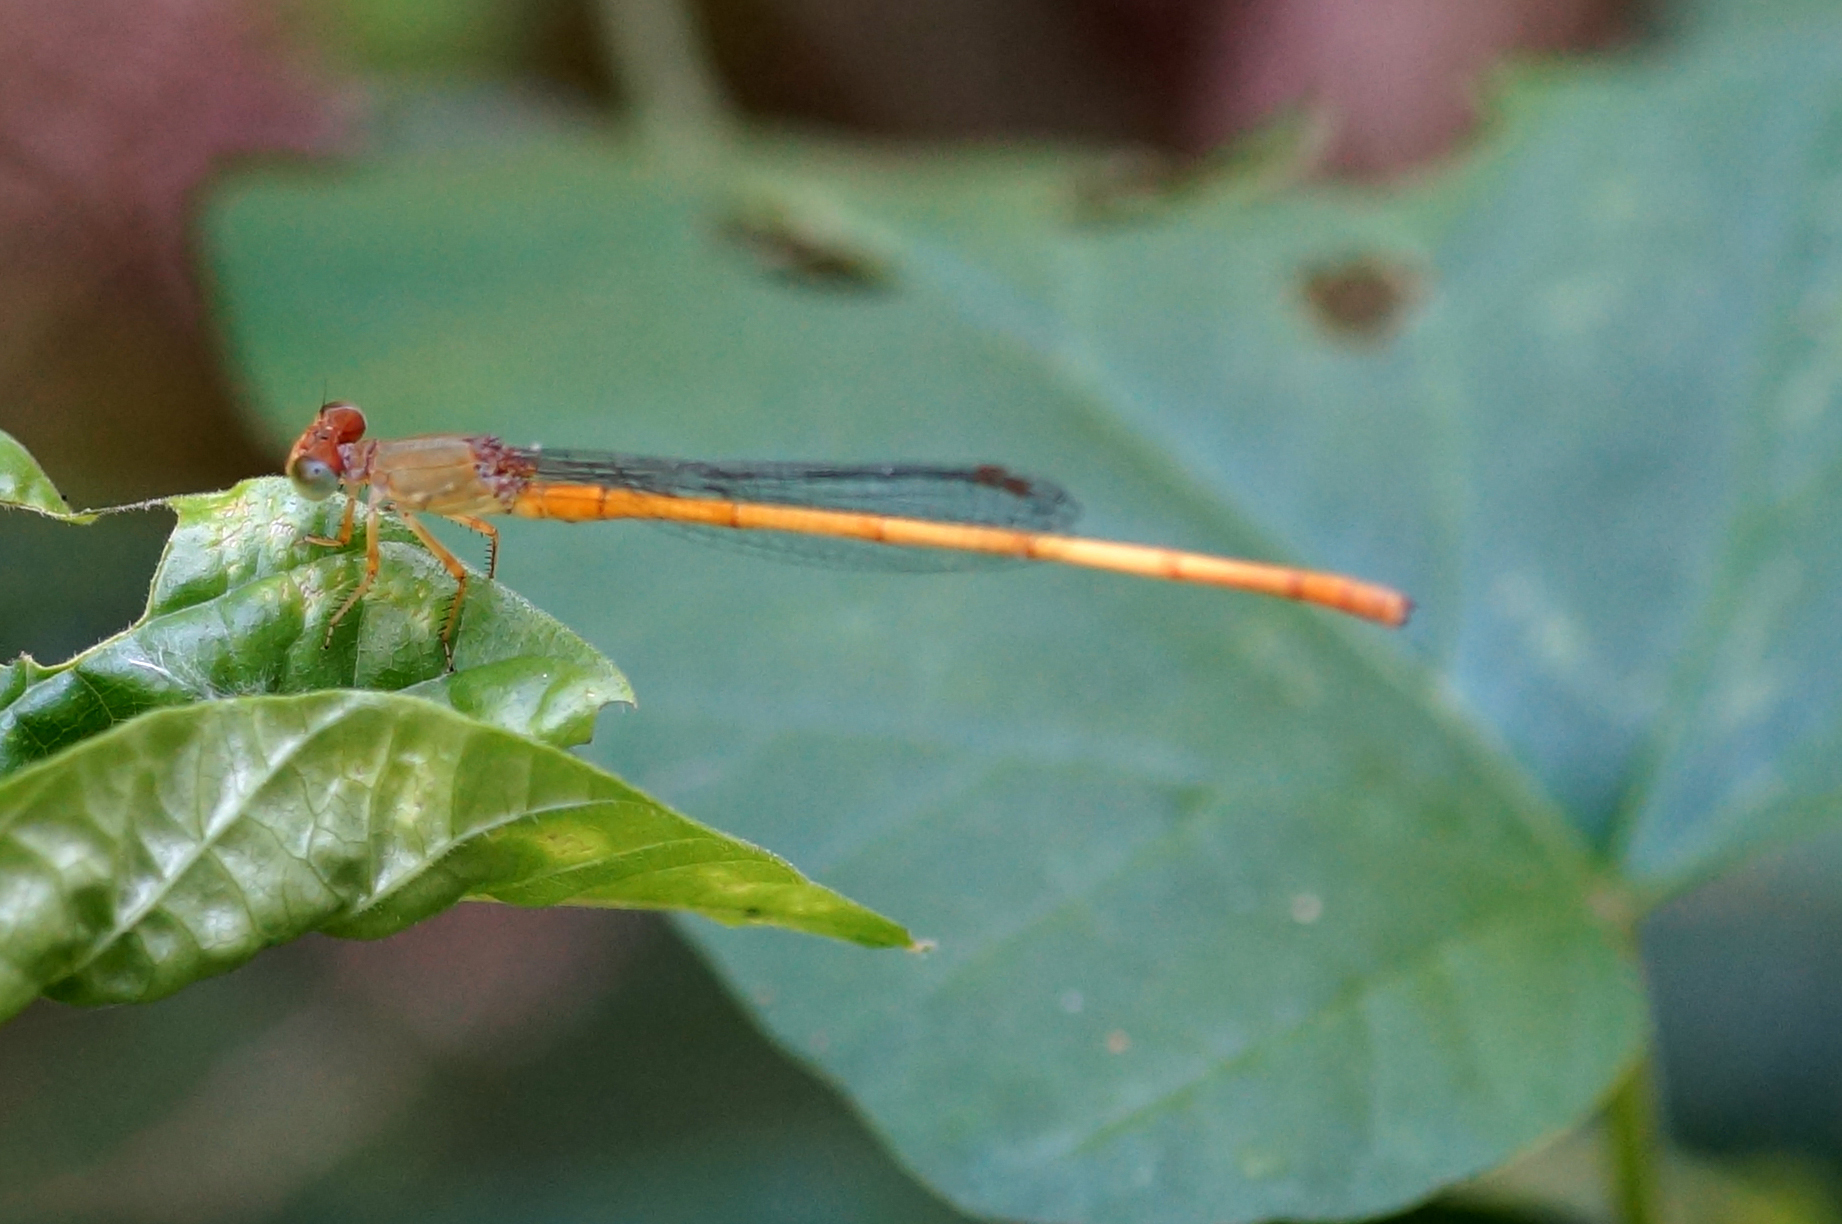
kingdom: Animalia
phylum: Arthropoda
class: Insecta
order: Odonata
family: Coenagrionidae
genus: Ceriagrion
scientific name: Ceriagrion calamineum
